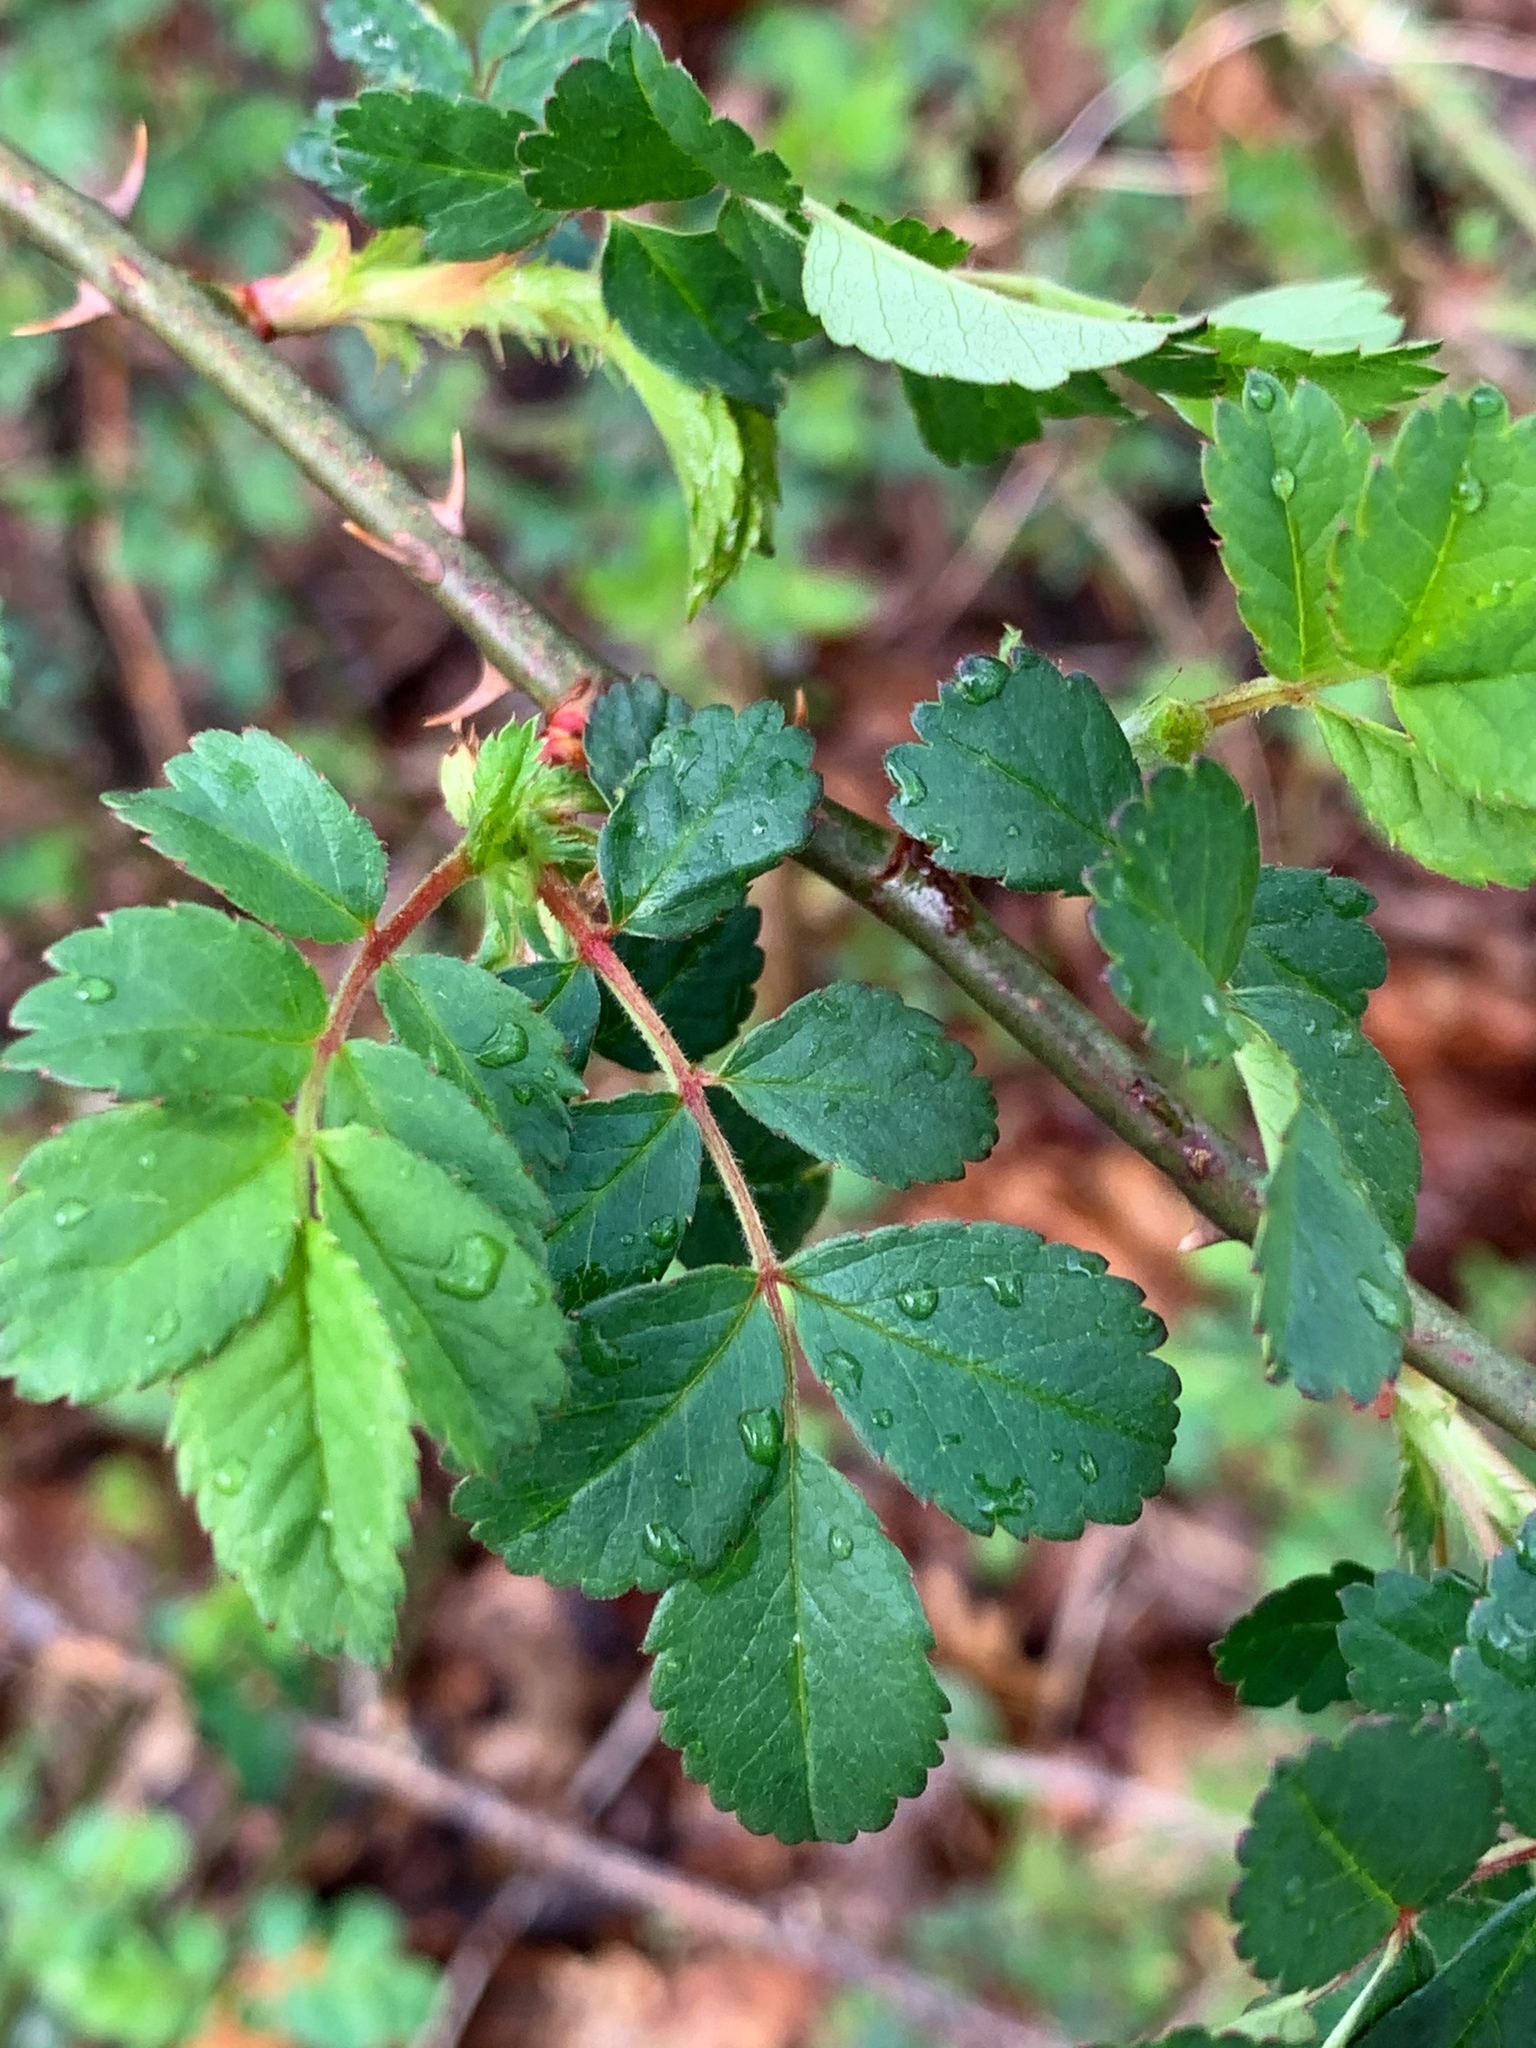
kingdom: Plantae
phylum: Tracheophyta
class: Magnoliopsida
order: Rosales
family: Rosaceae
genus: Rosa
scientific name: Rosa multiflora
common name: Multiflora rose
